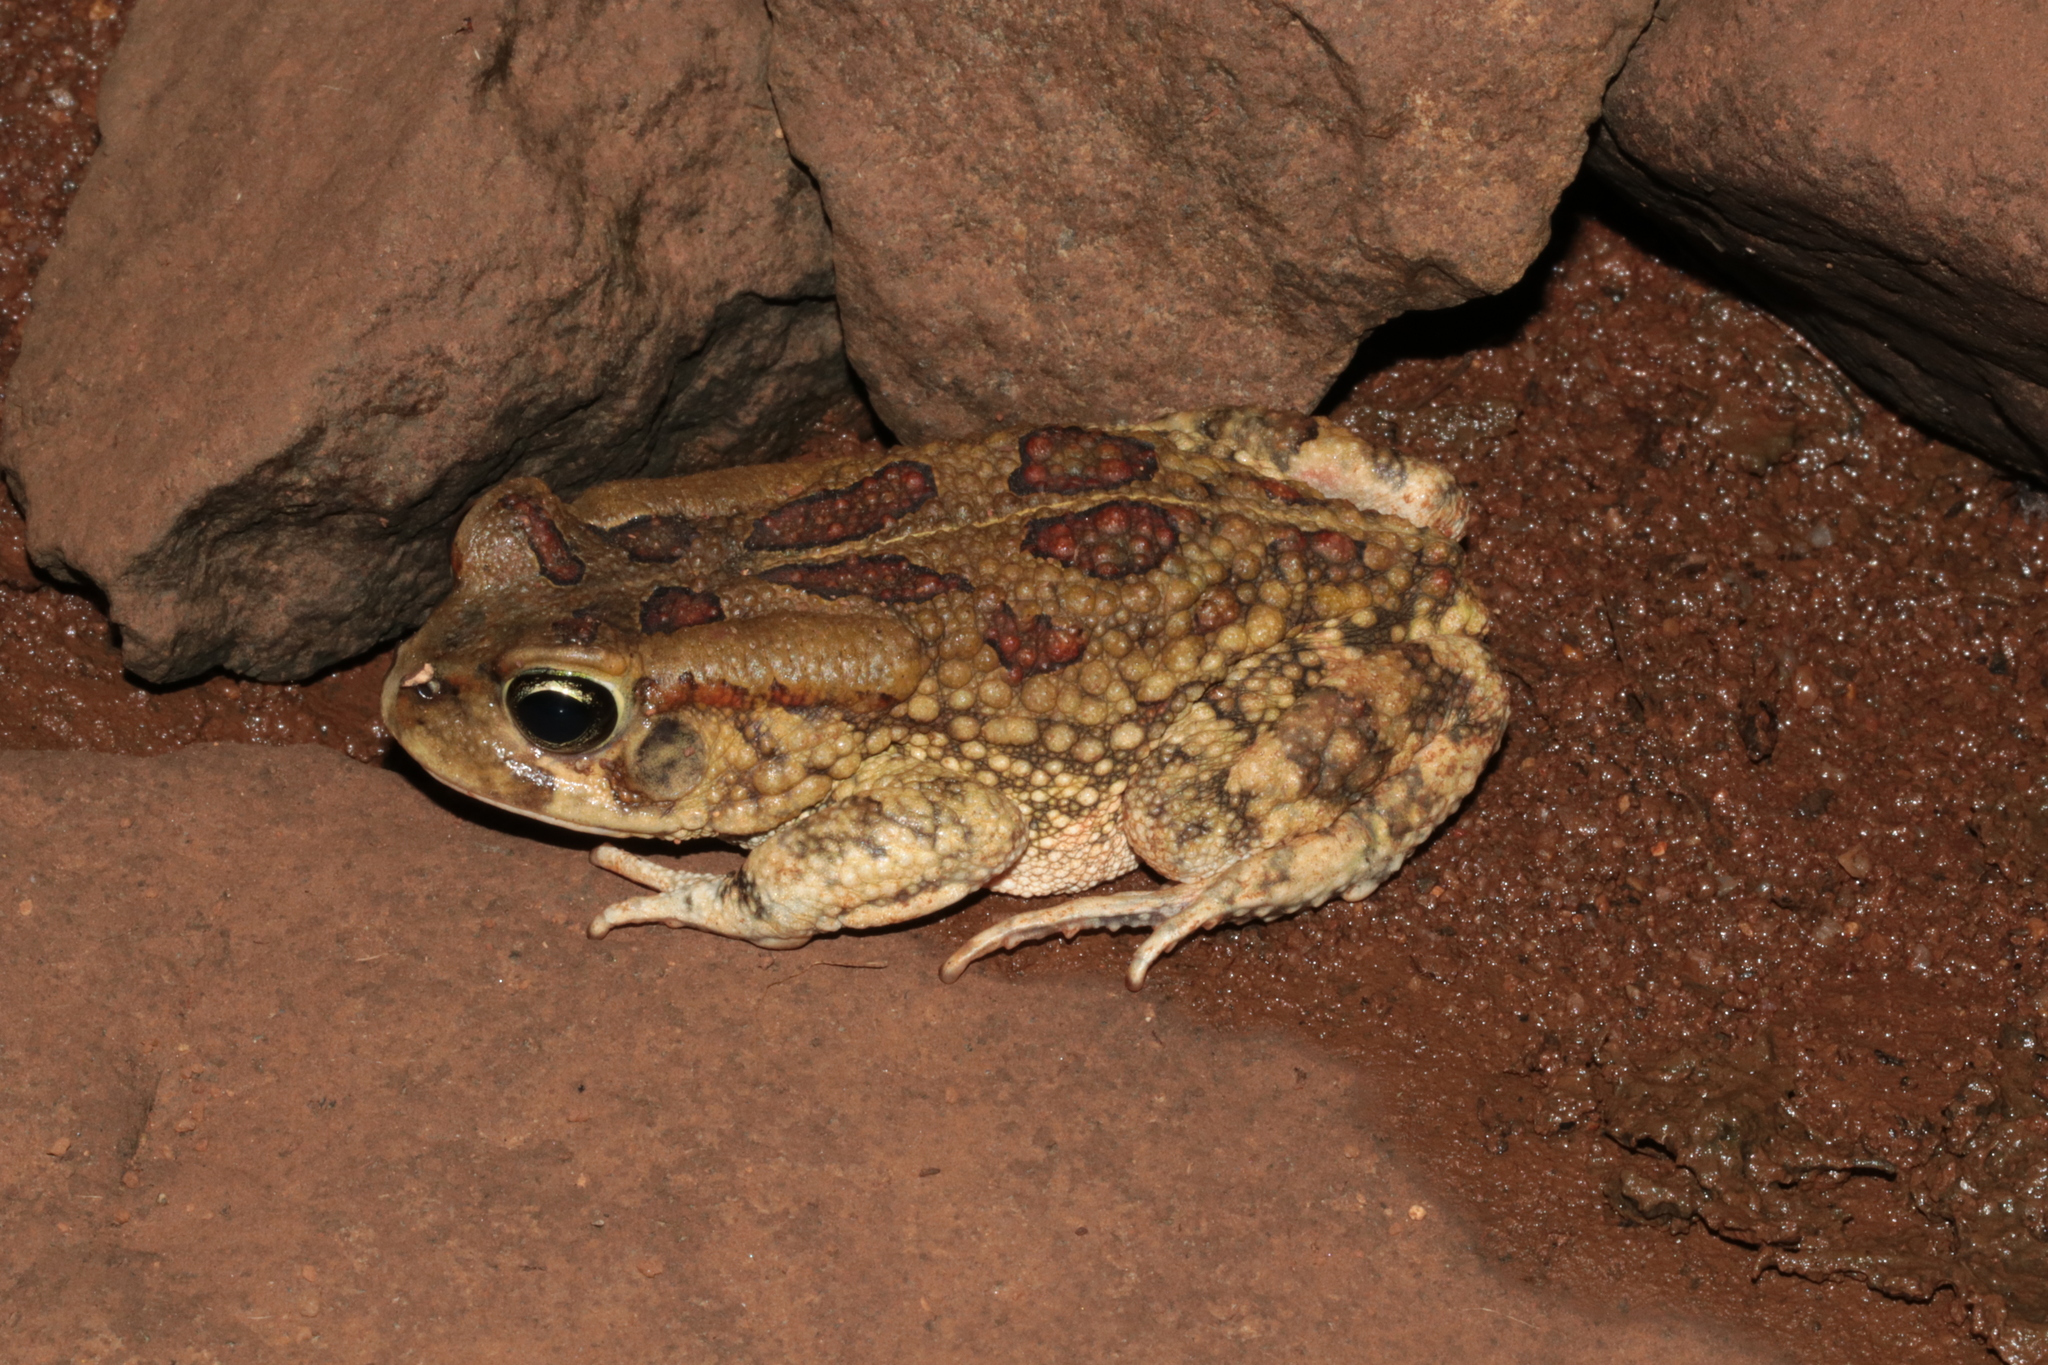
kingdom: Animalia
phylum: Chordata
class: Amphibia
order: Anura
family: Bufonidae
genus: Sclerophrys
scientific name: Sclerophrys garmani
